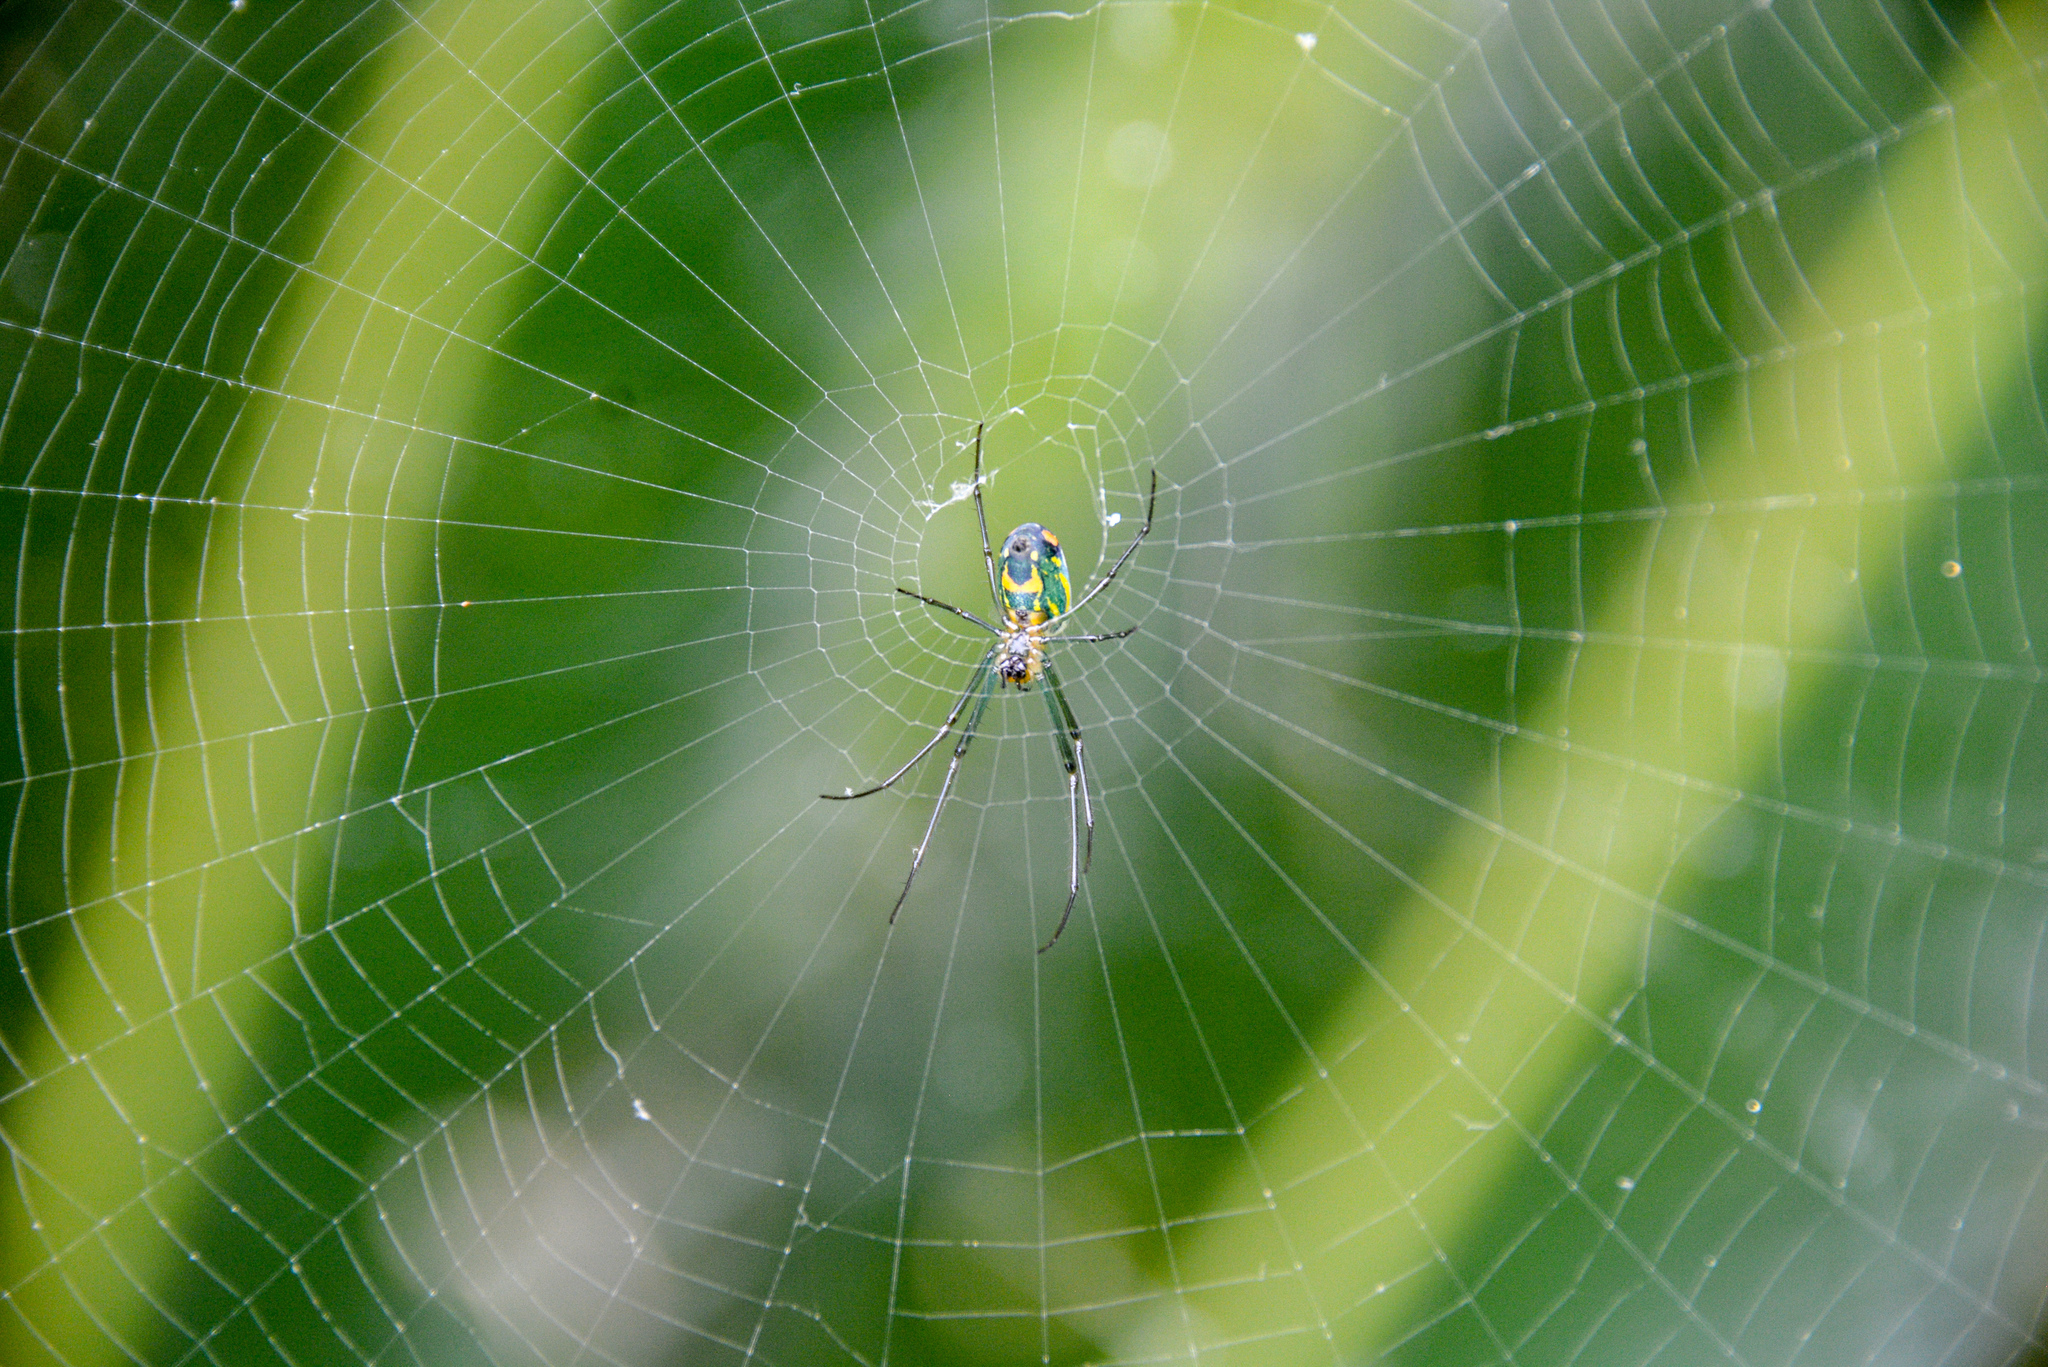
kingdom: Animalia
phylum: Arthropoda
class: Arachnida
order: Araneae
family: Tetragnathidae
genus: Leucauge
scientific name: Leucauge argyrobapta
